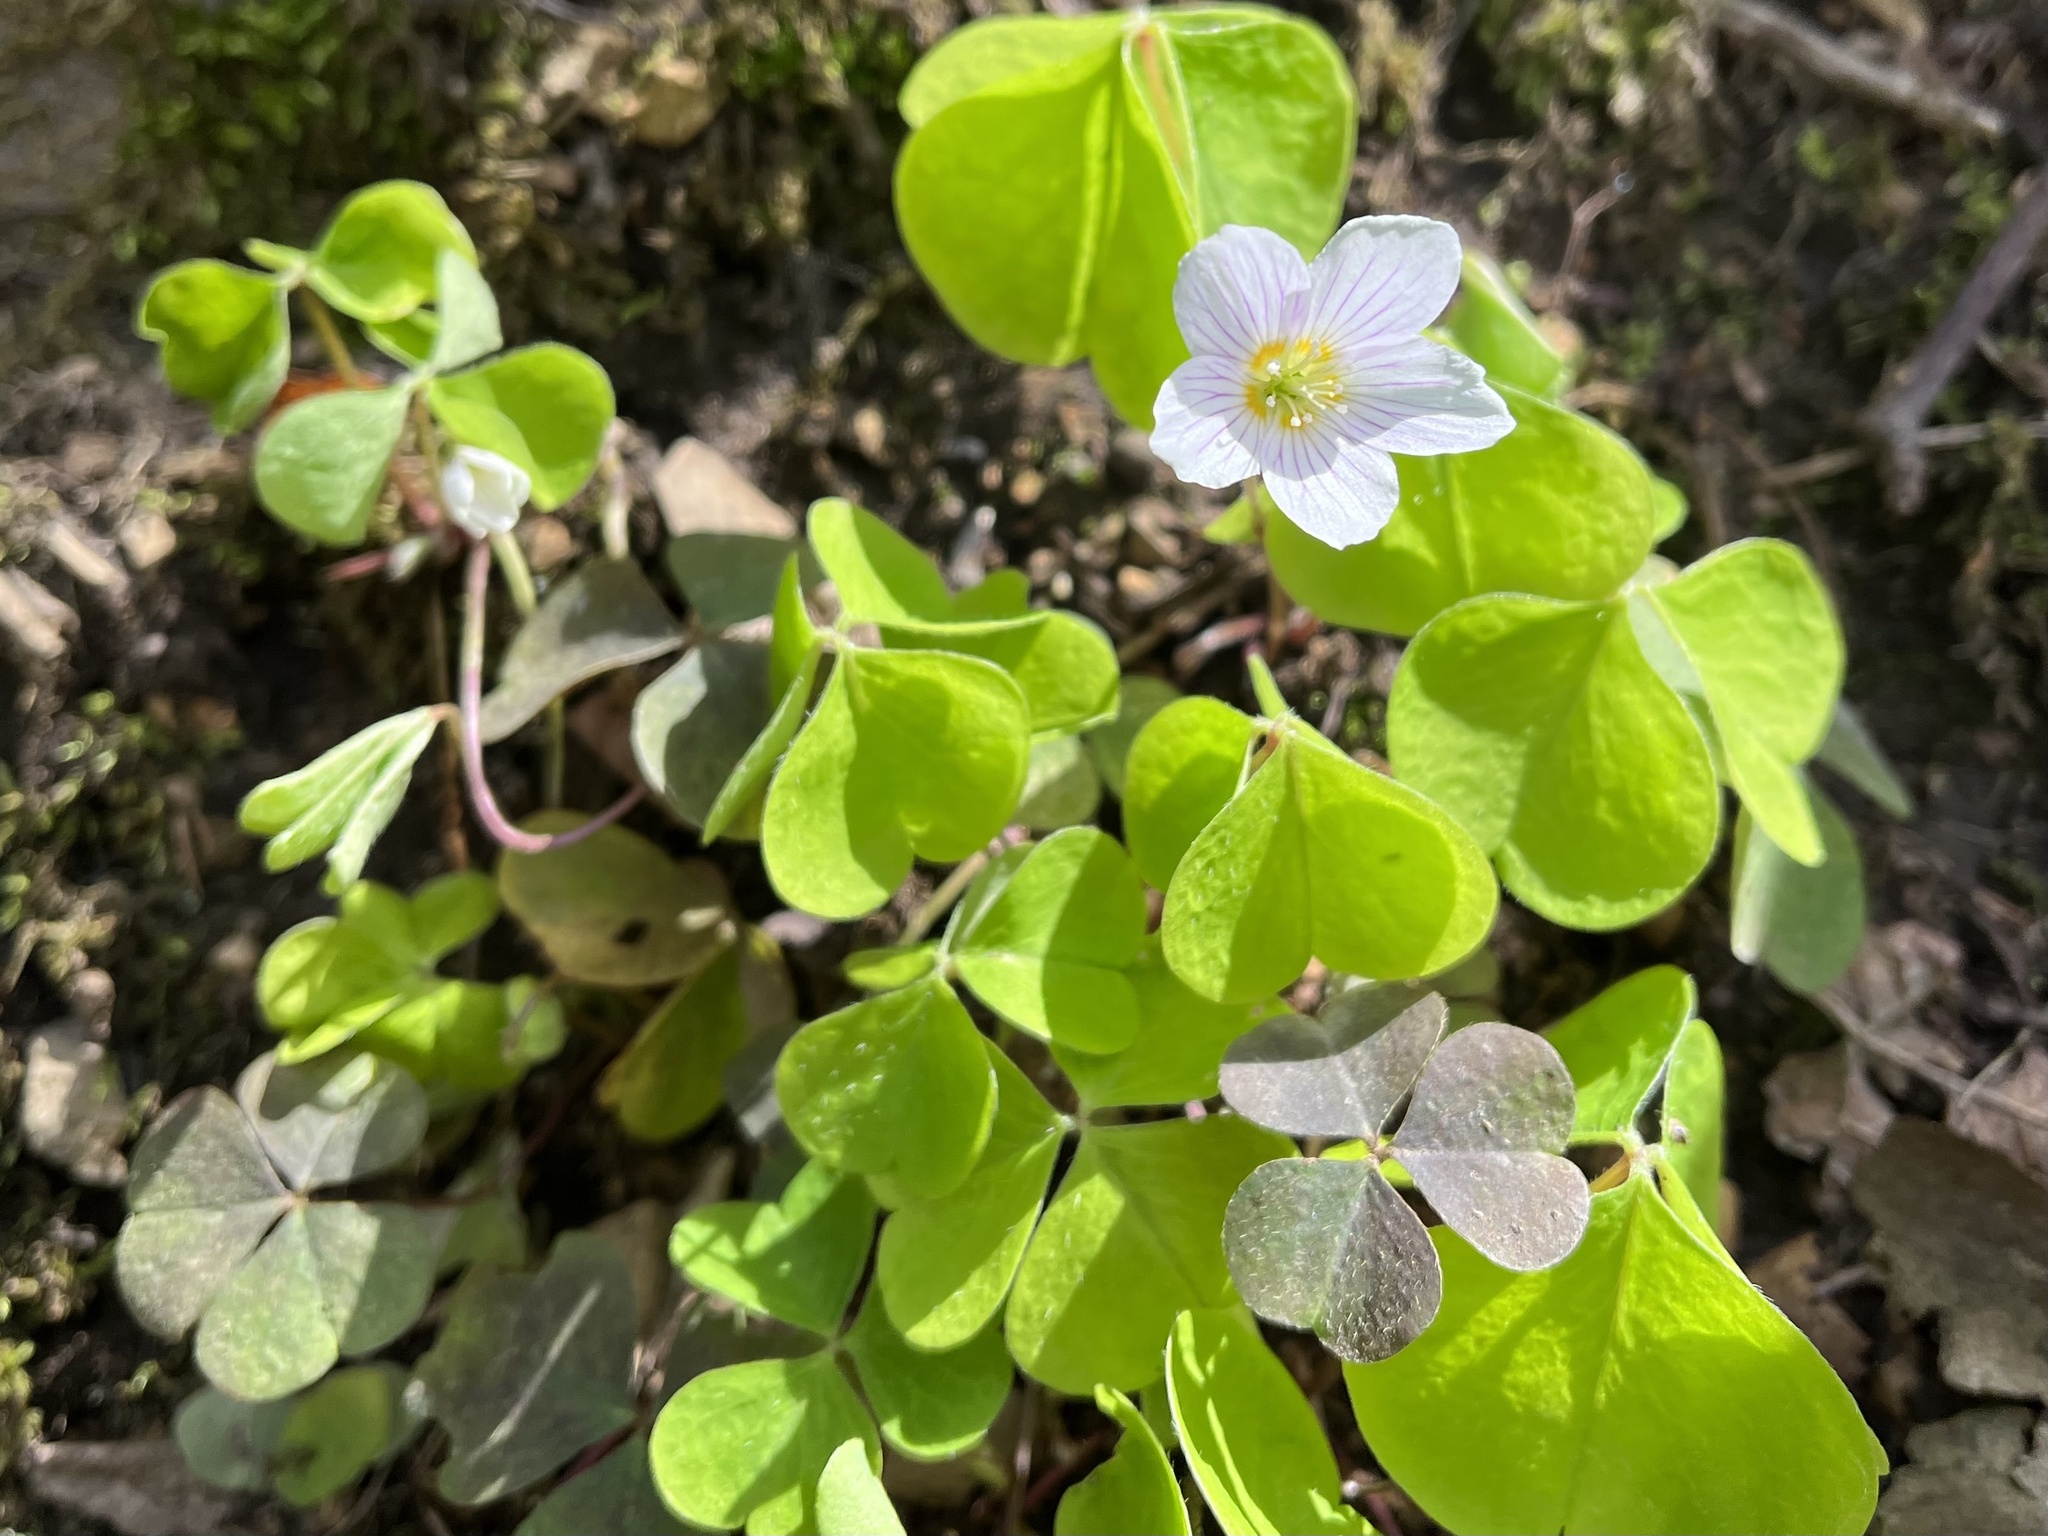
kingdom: Plantae
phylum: Tracheophyta
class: Magnoliopsida
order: Oxalidales
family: Oxalidaceae
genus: Oxalis
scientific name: Oxalis acetosella
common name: Wood-sorrel
